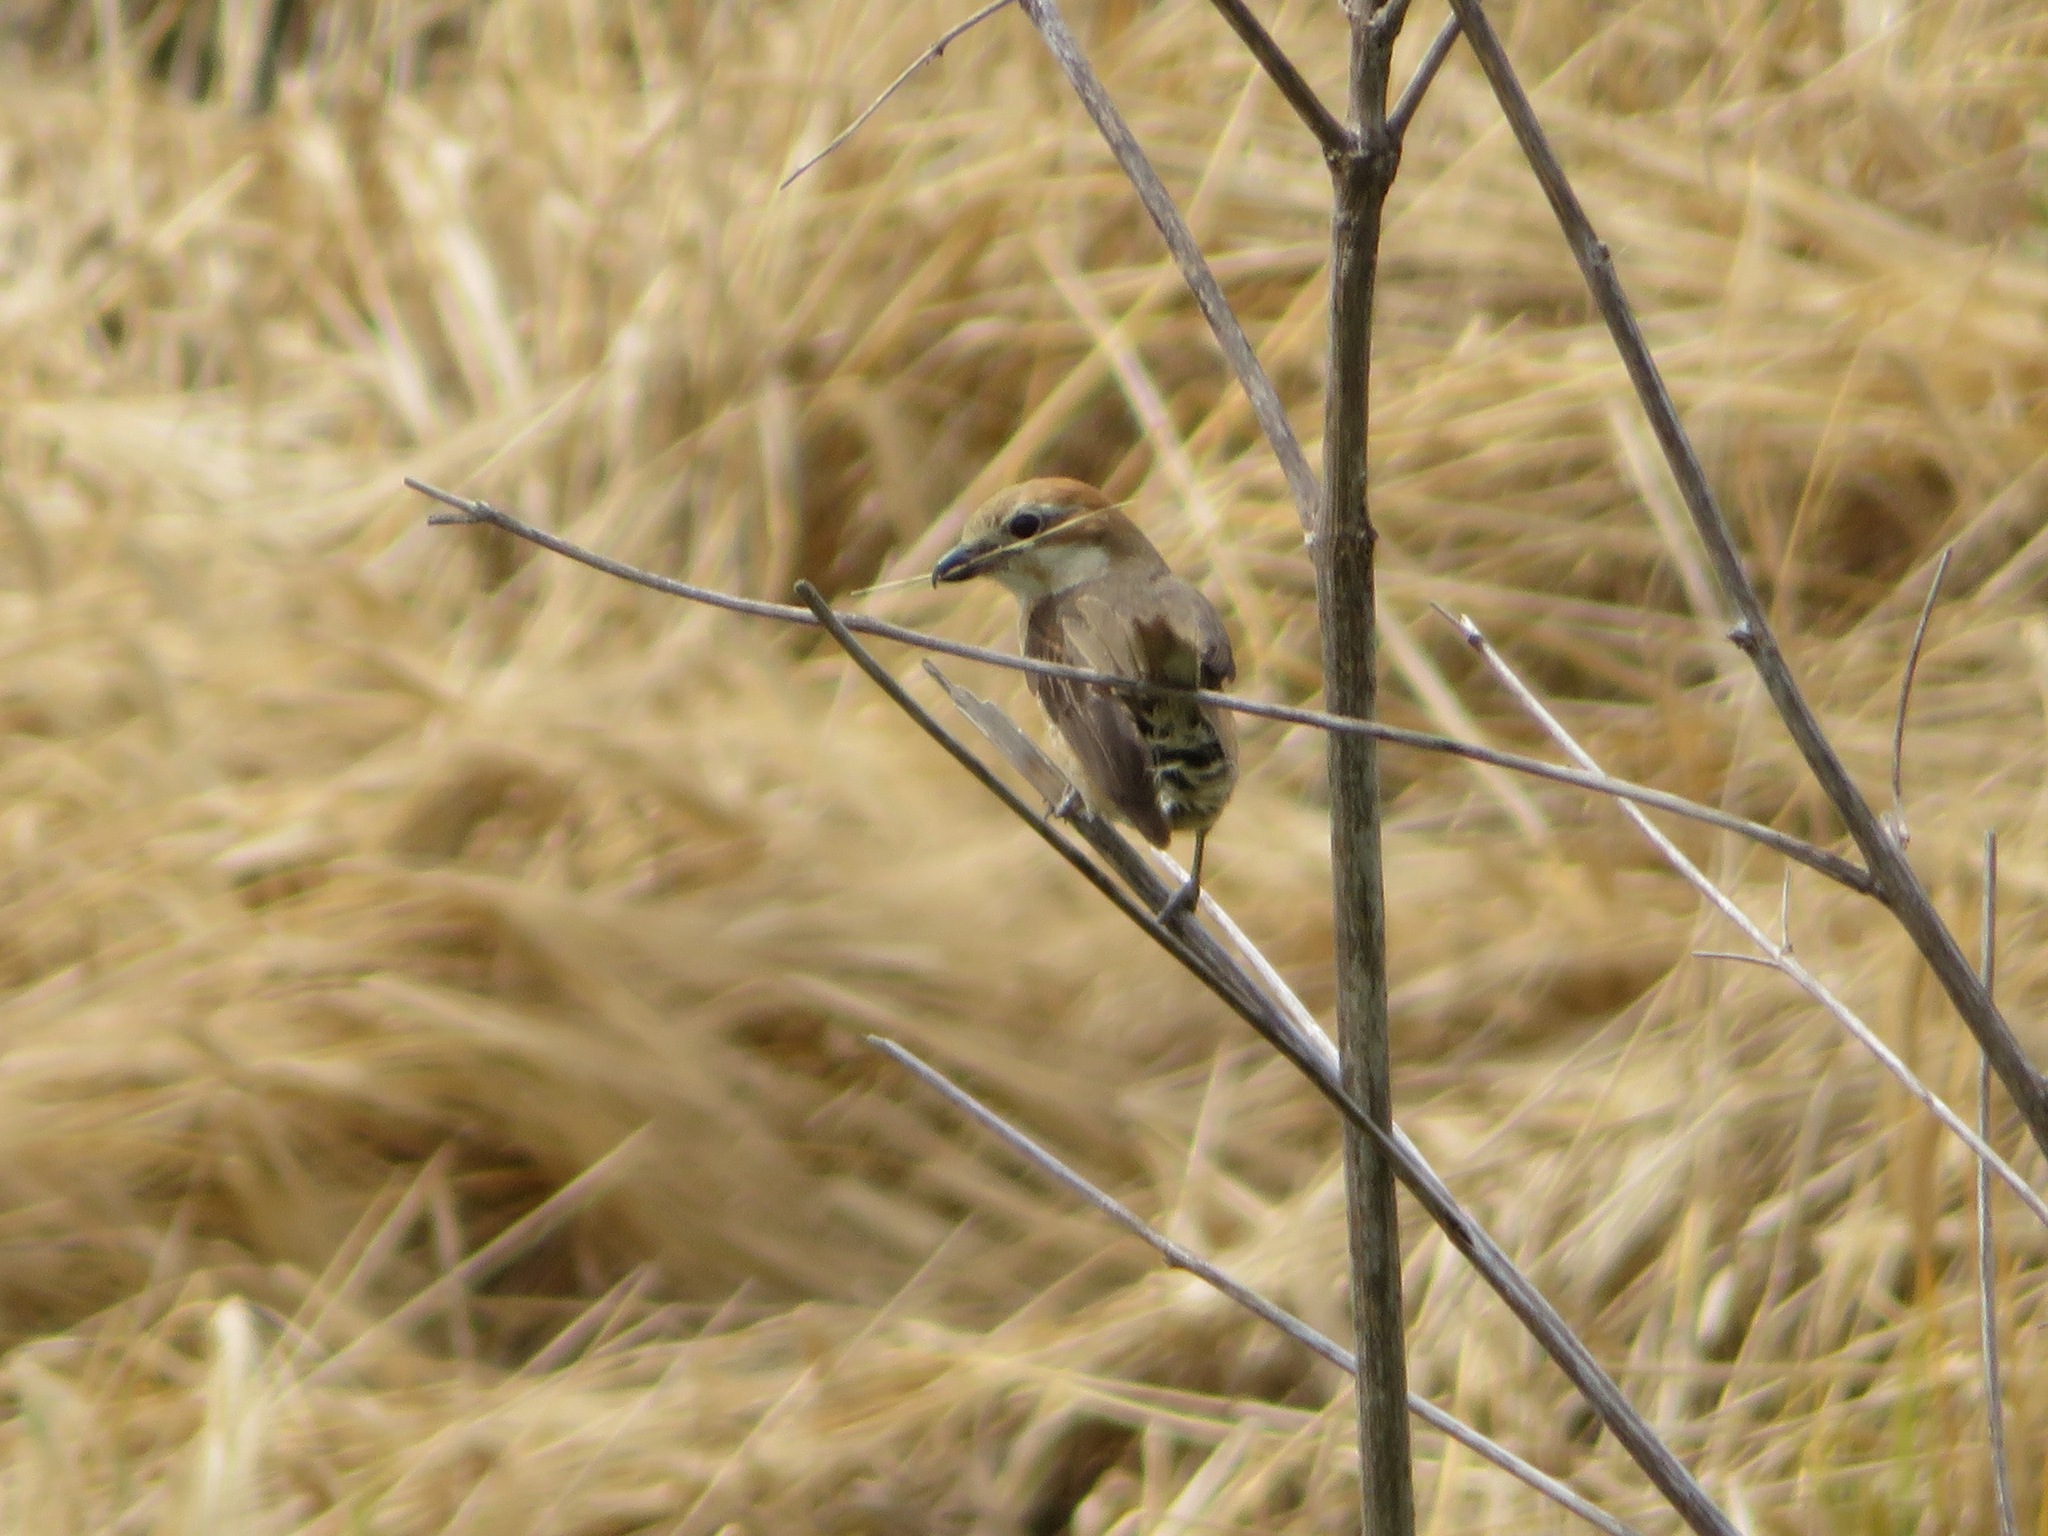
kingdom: Animalia
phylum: Chordata
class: Aves
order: Passeriformes
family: Laniidae
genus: Lanius
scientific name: Lanius bucephalus
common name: Bull-headed shrike
